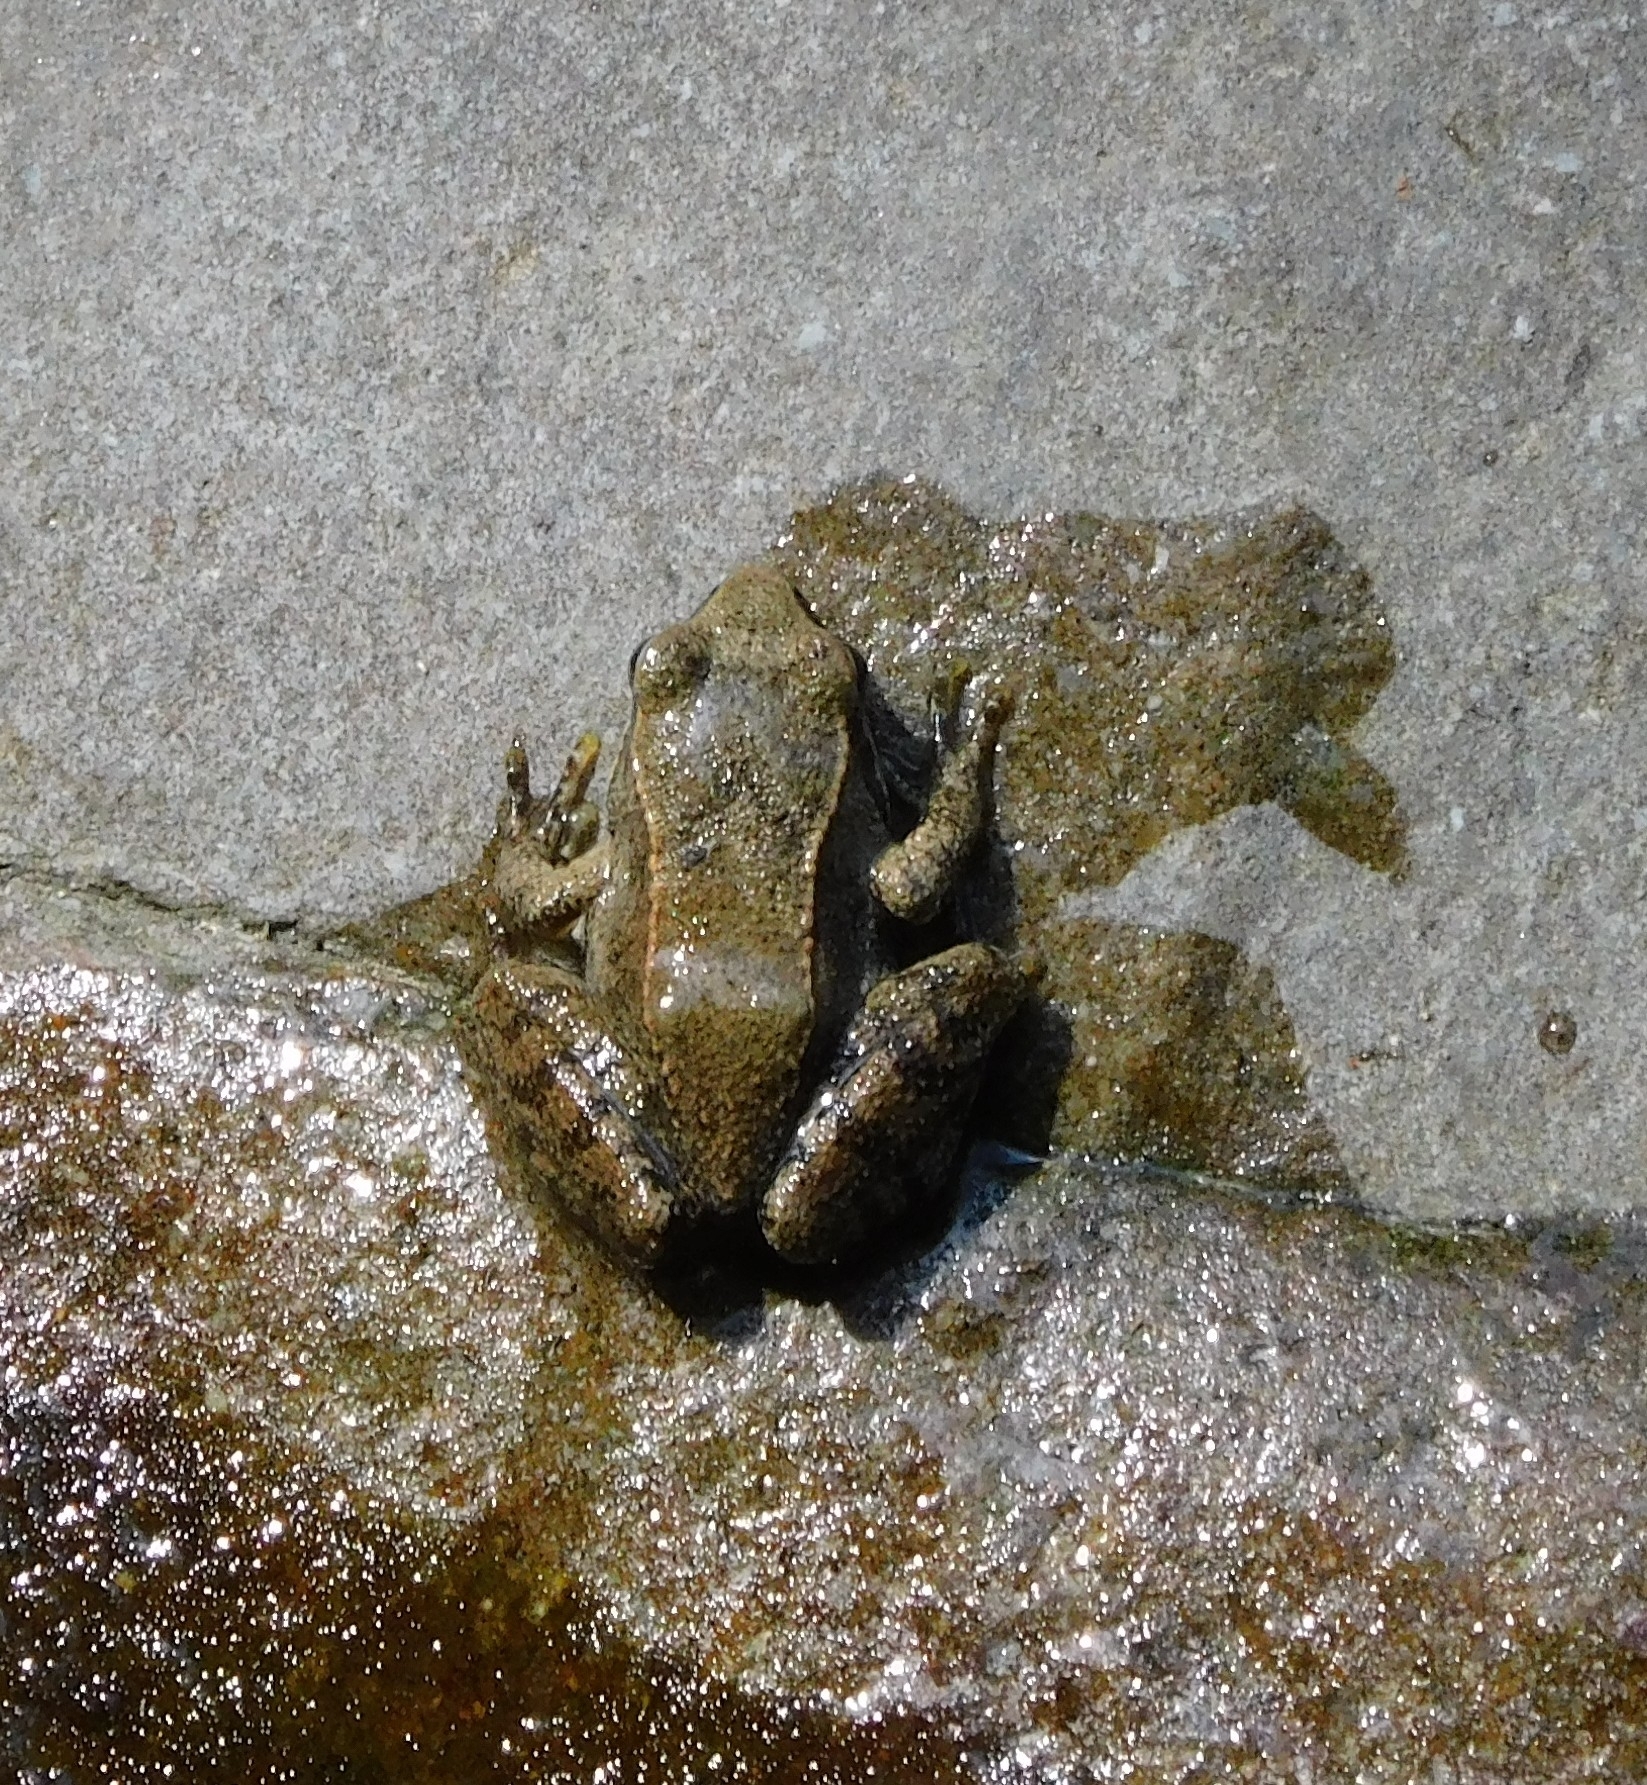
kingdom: Animalia
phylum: Chordata
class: Amphibia
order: Anura
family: Ranidae
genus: Rana
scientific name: Rana italica
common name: Italian stream frog
